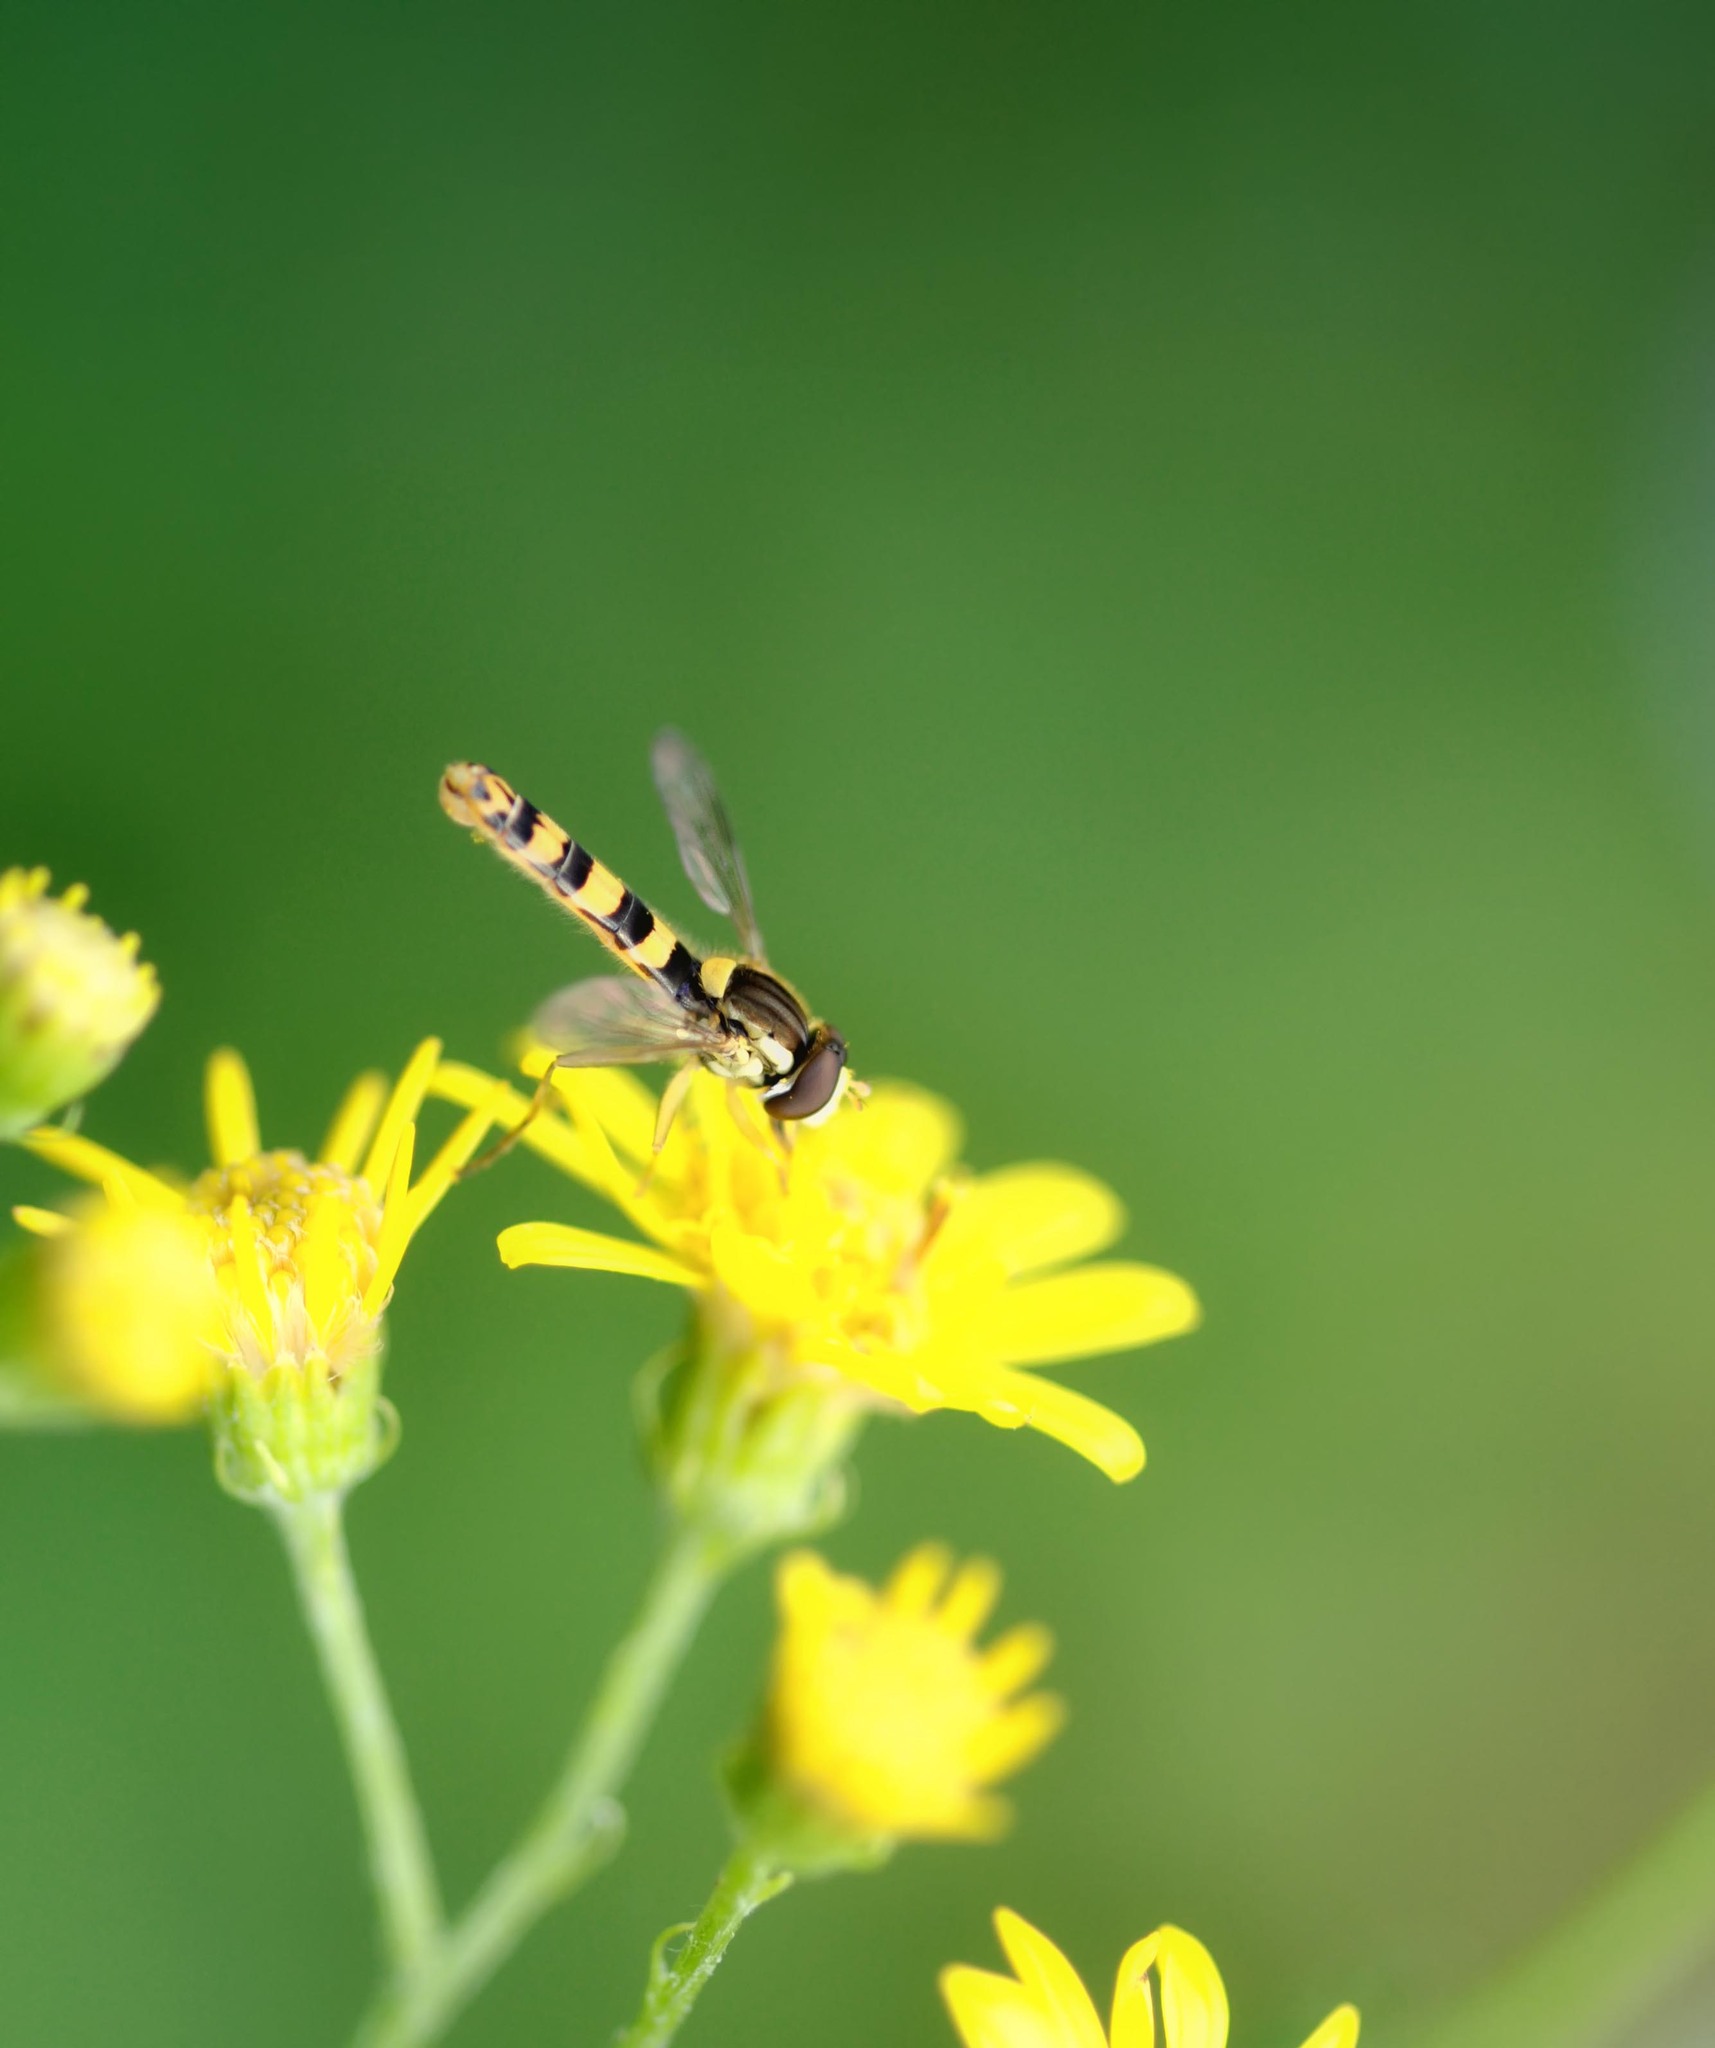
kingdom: Animalia
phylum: Arthropoda
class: Insecta
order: Diptera
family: Syrphidae
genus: Sphaerophoria
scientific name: Sphaerophoria scripta
